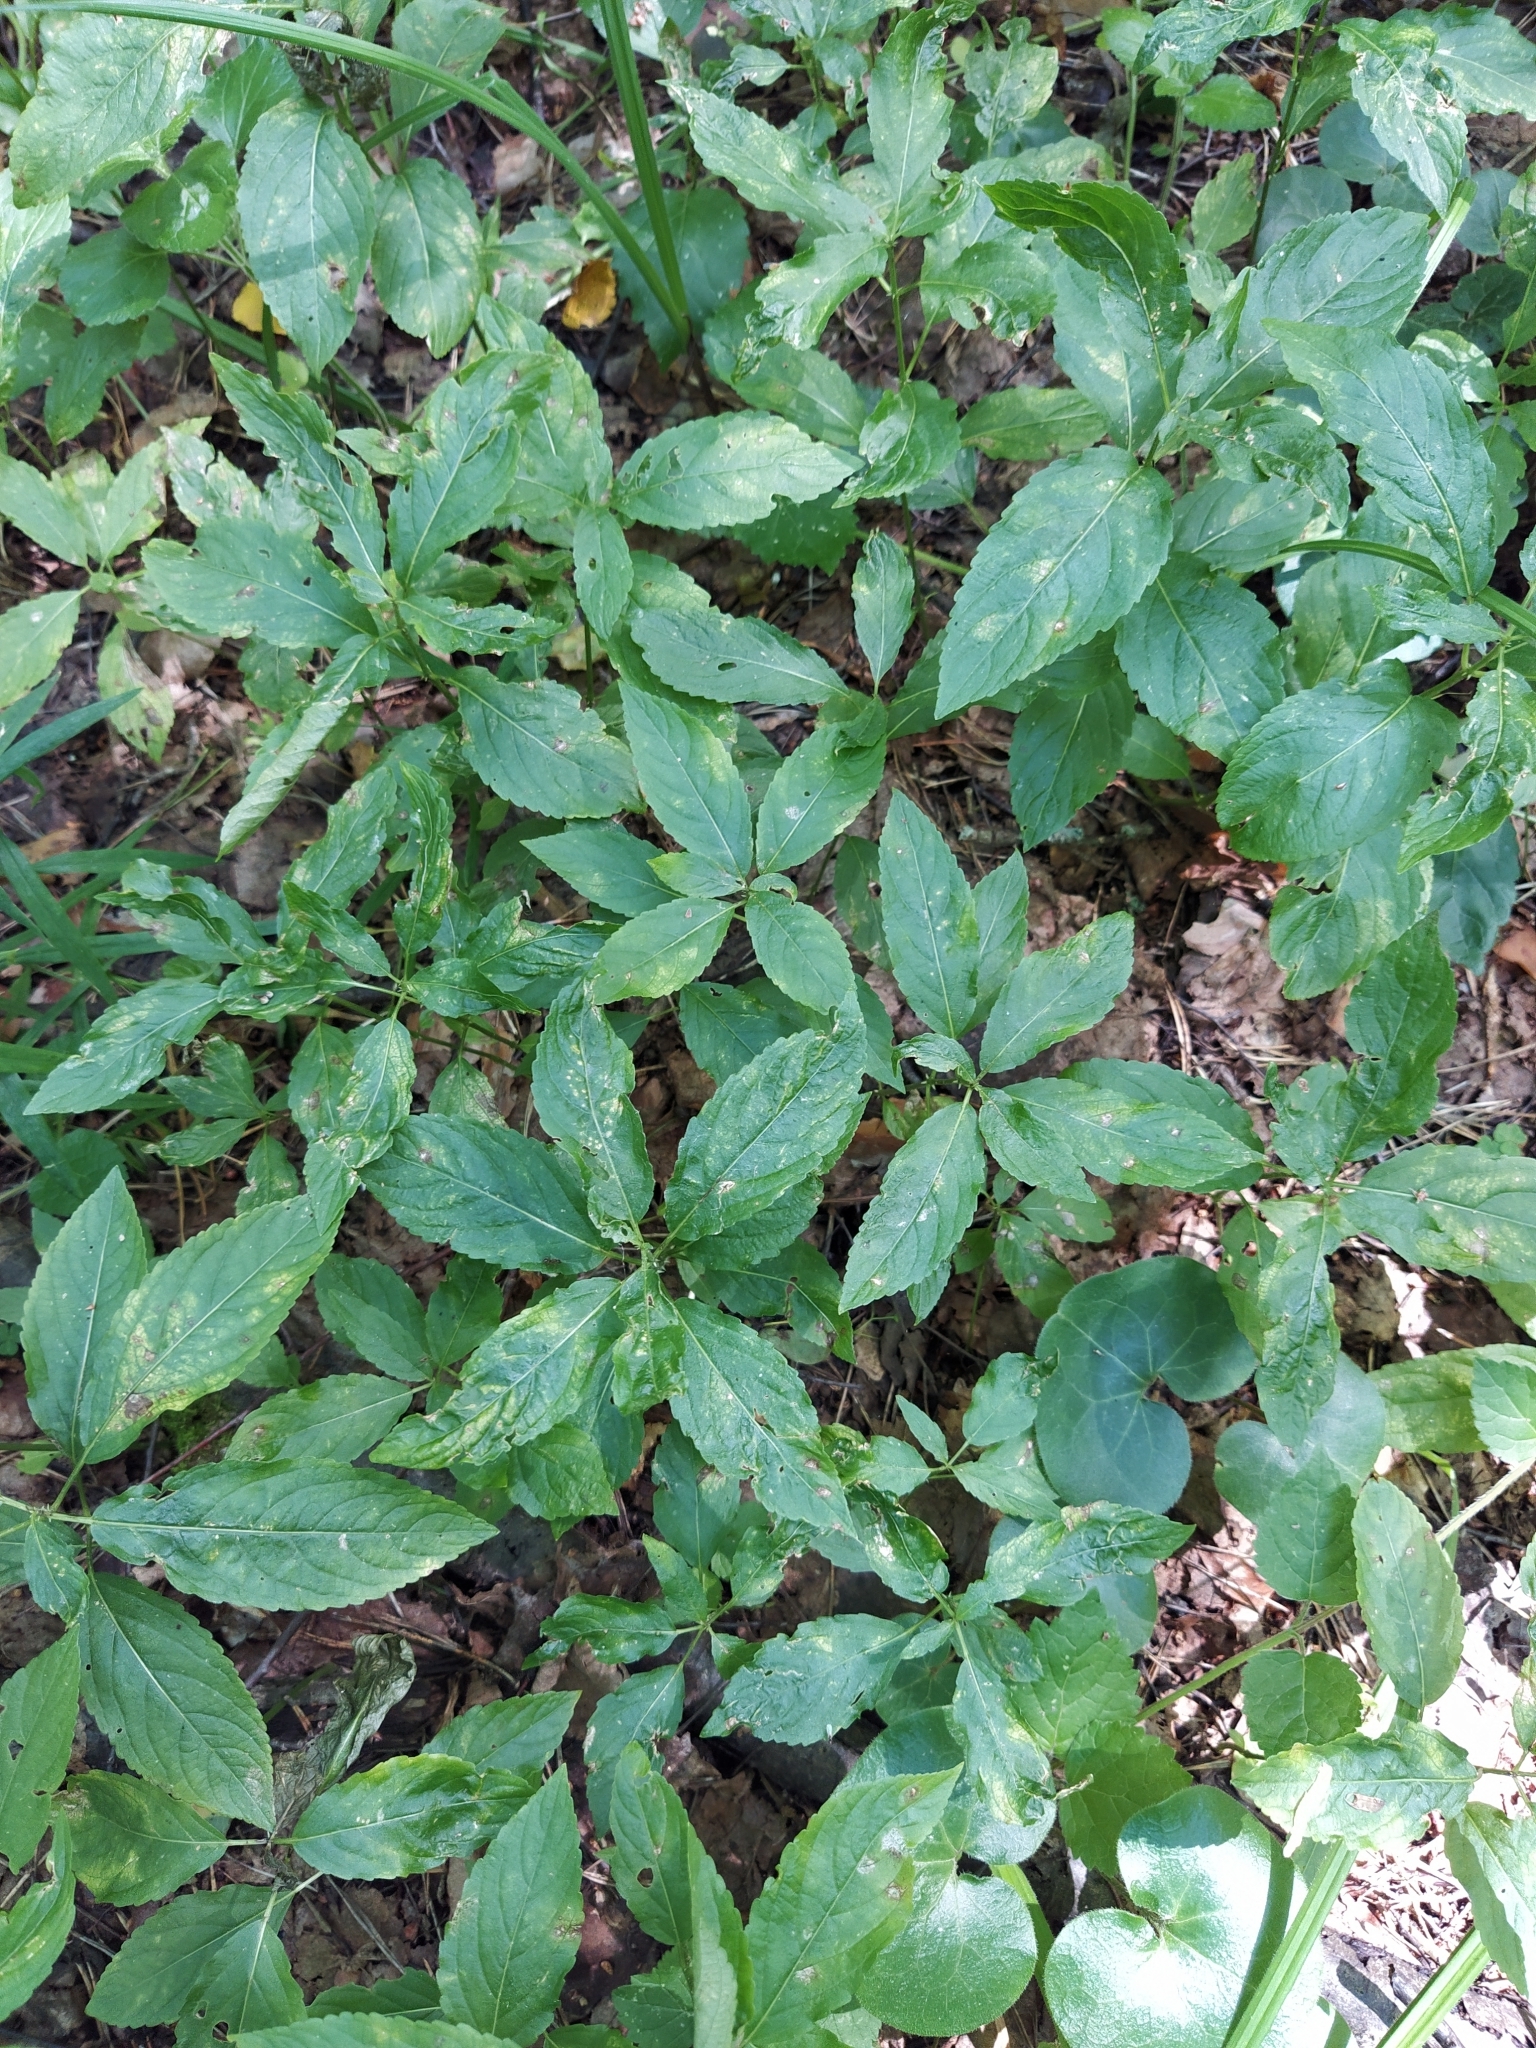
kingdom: Plantae
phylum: Tracheophyta
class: Magnoliopsida
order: Malpighiales
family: Euphorbiaceae
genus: Mercurialis
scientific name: Mercurialis perennis
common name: Dog mercury
